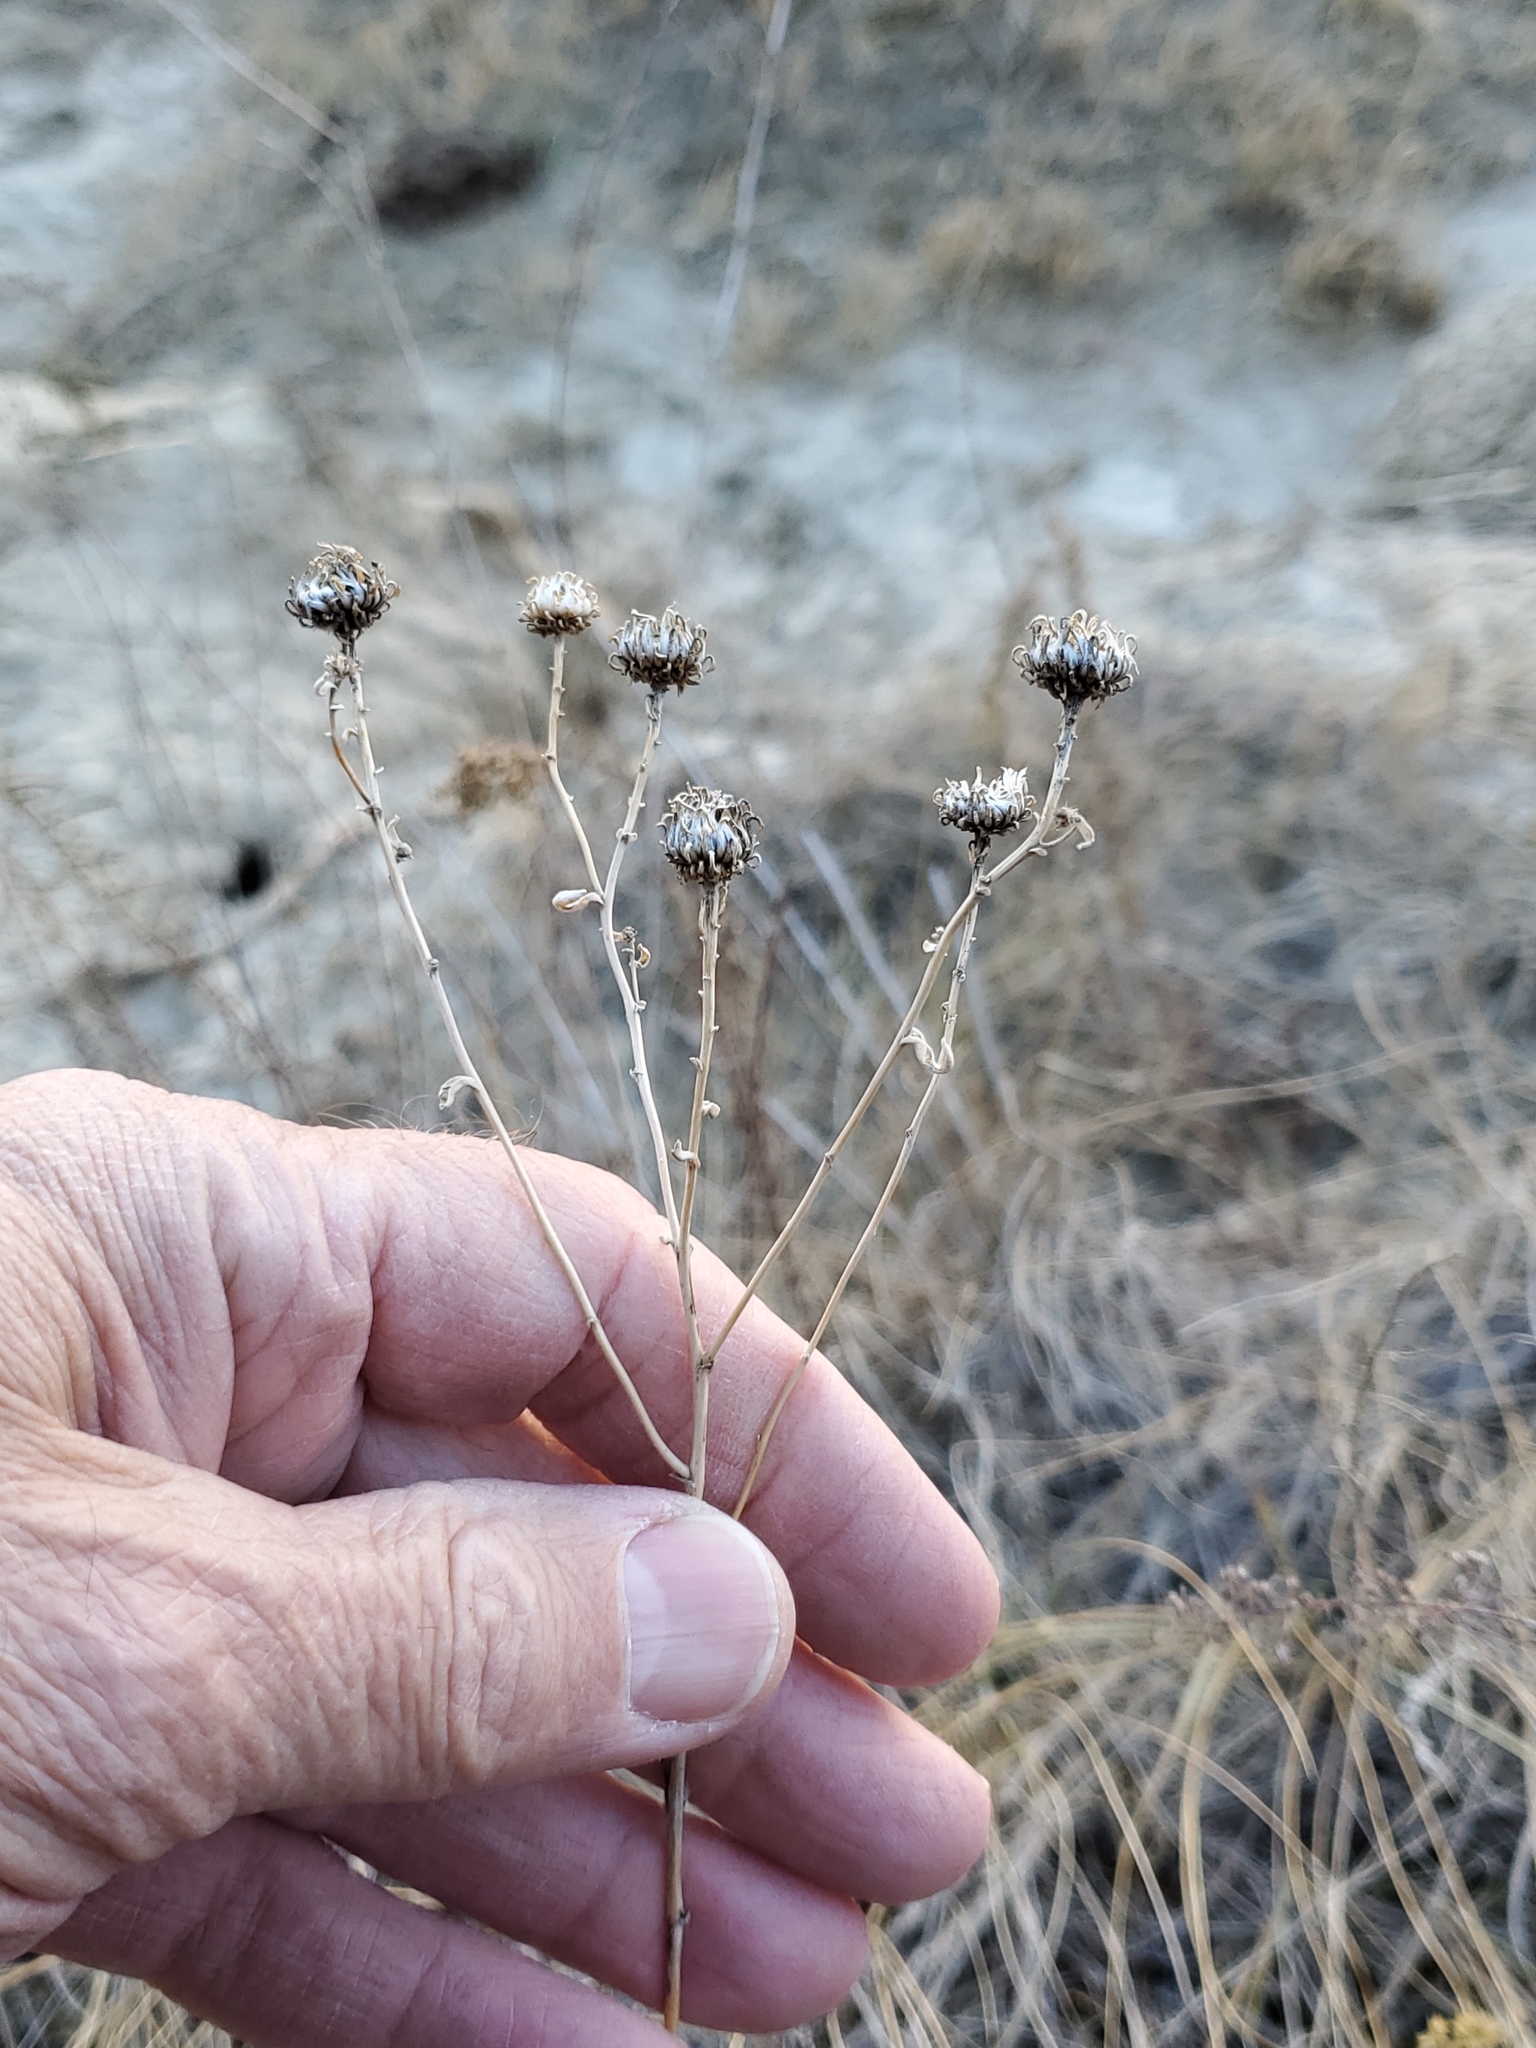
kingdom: Plantae
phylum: Tracheophyta
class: Magnoliopsida
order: Asterales
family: Asteraceae
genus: Grindelia
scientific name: Grindelia squarrosa
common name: Curly-cup gumweed
